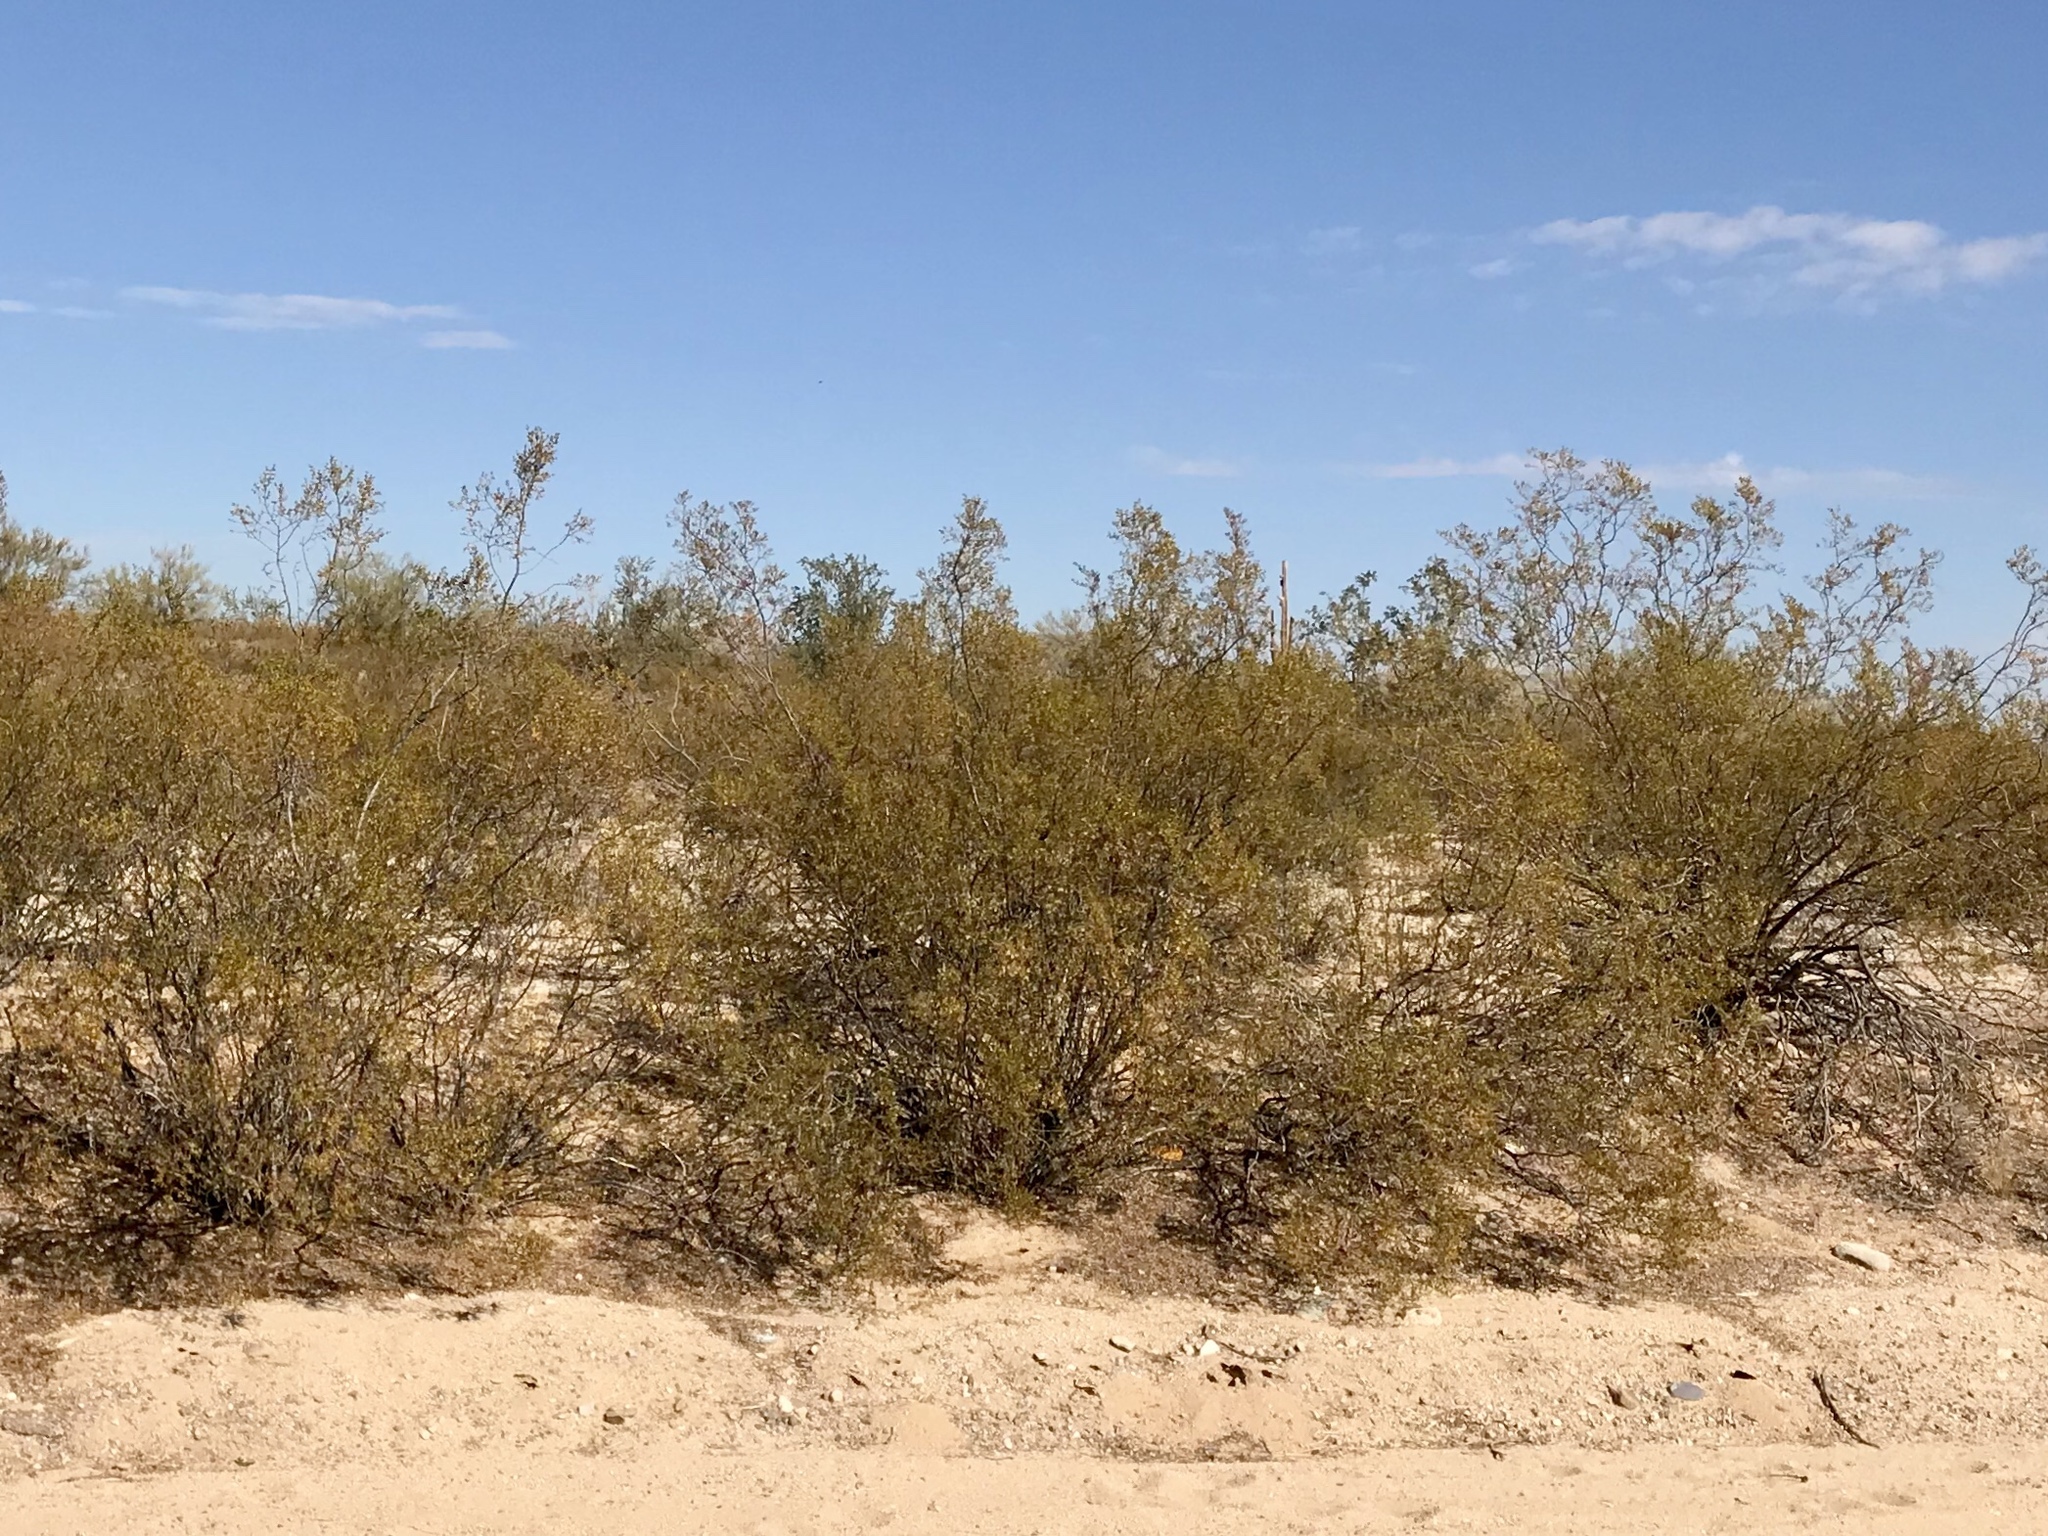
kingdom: Plantae
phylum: Tracheophyta
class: Magnoliopsida
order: Zygophyllales
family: Zygophyllaceae
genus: Larrea
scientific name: Larrea tridentata
